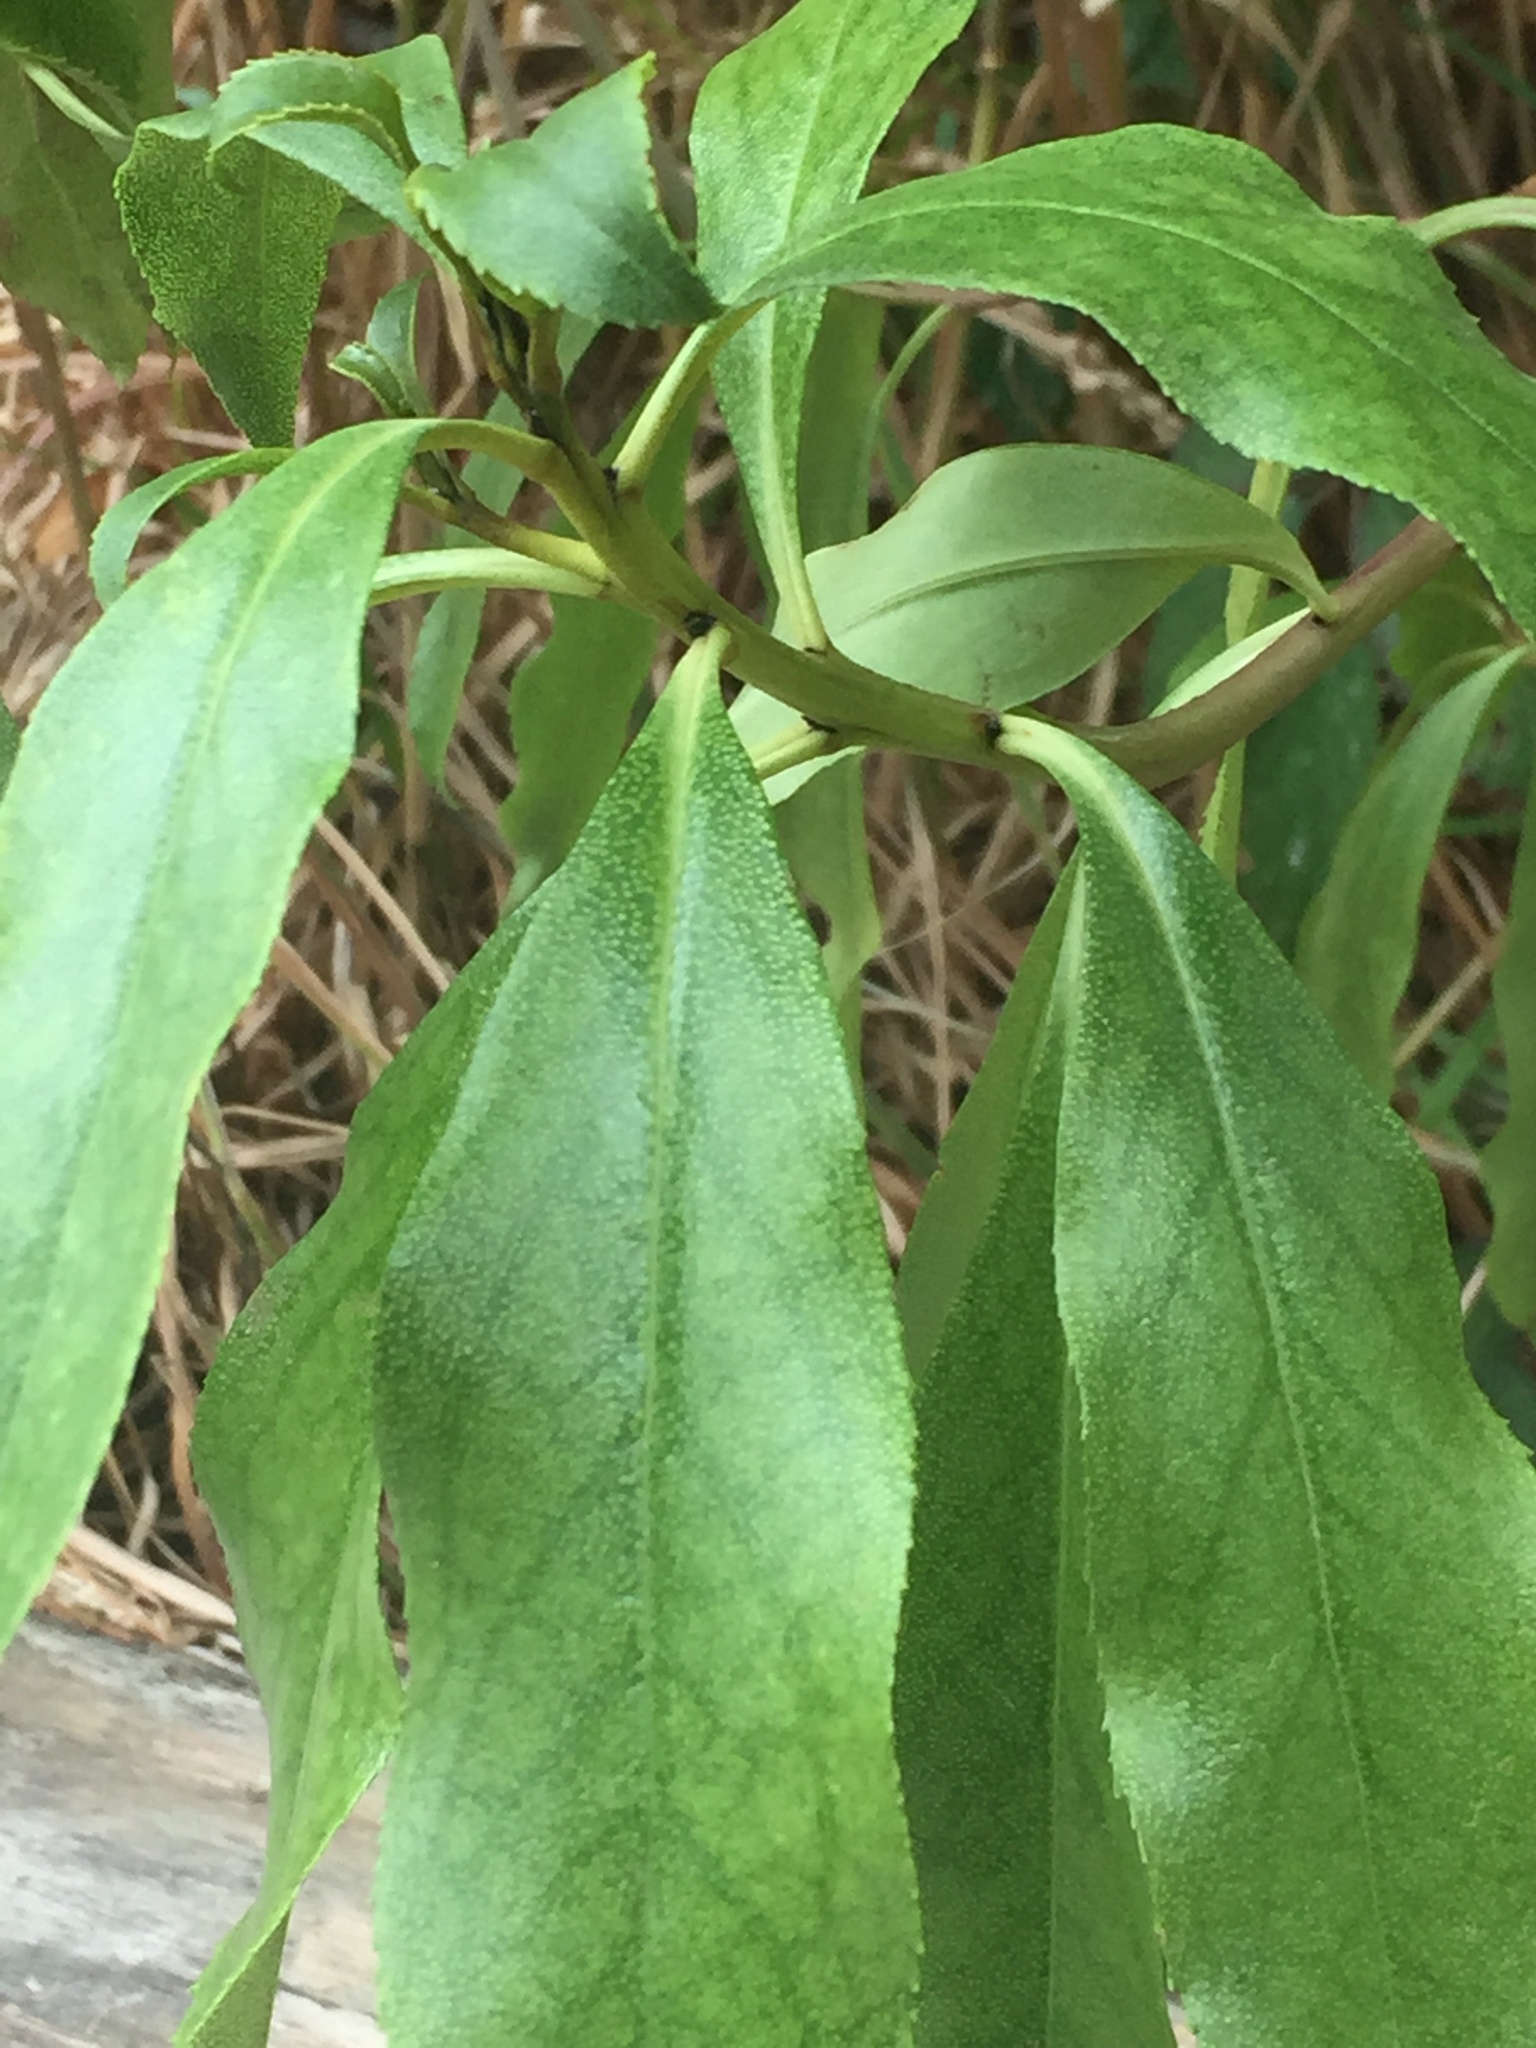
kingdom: Plantae
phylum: Tracheophyta
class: Magnoliopsida
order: Lamiales
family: Scrophulariaceae
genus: Myoporum
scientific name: Myoporum laetum
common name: Ngaio tree
